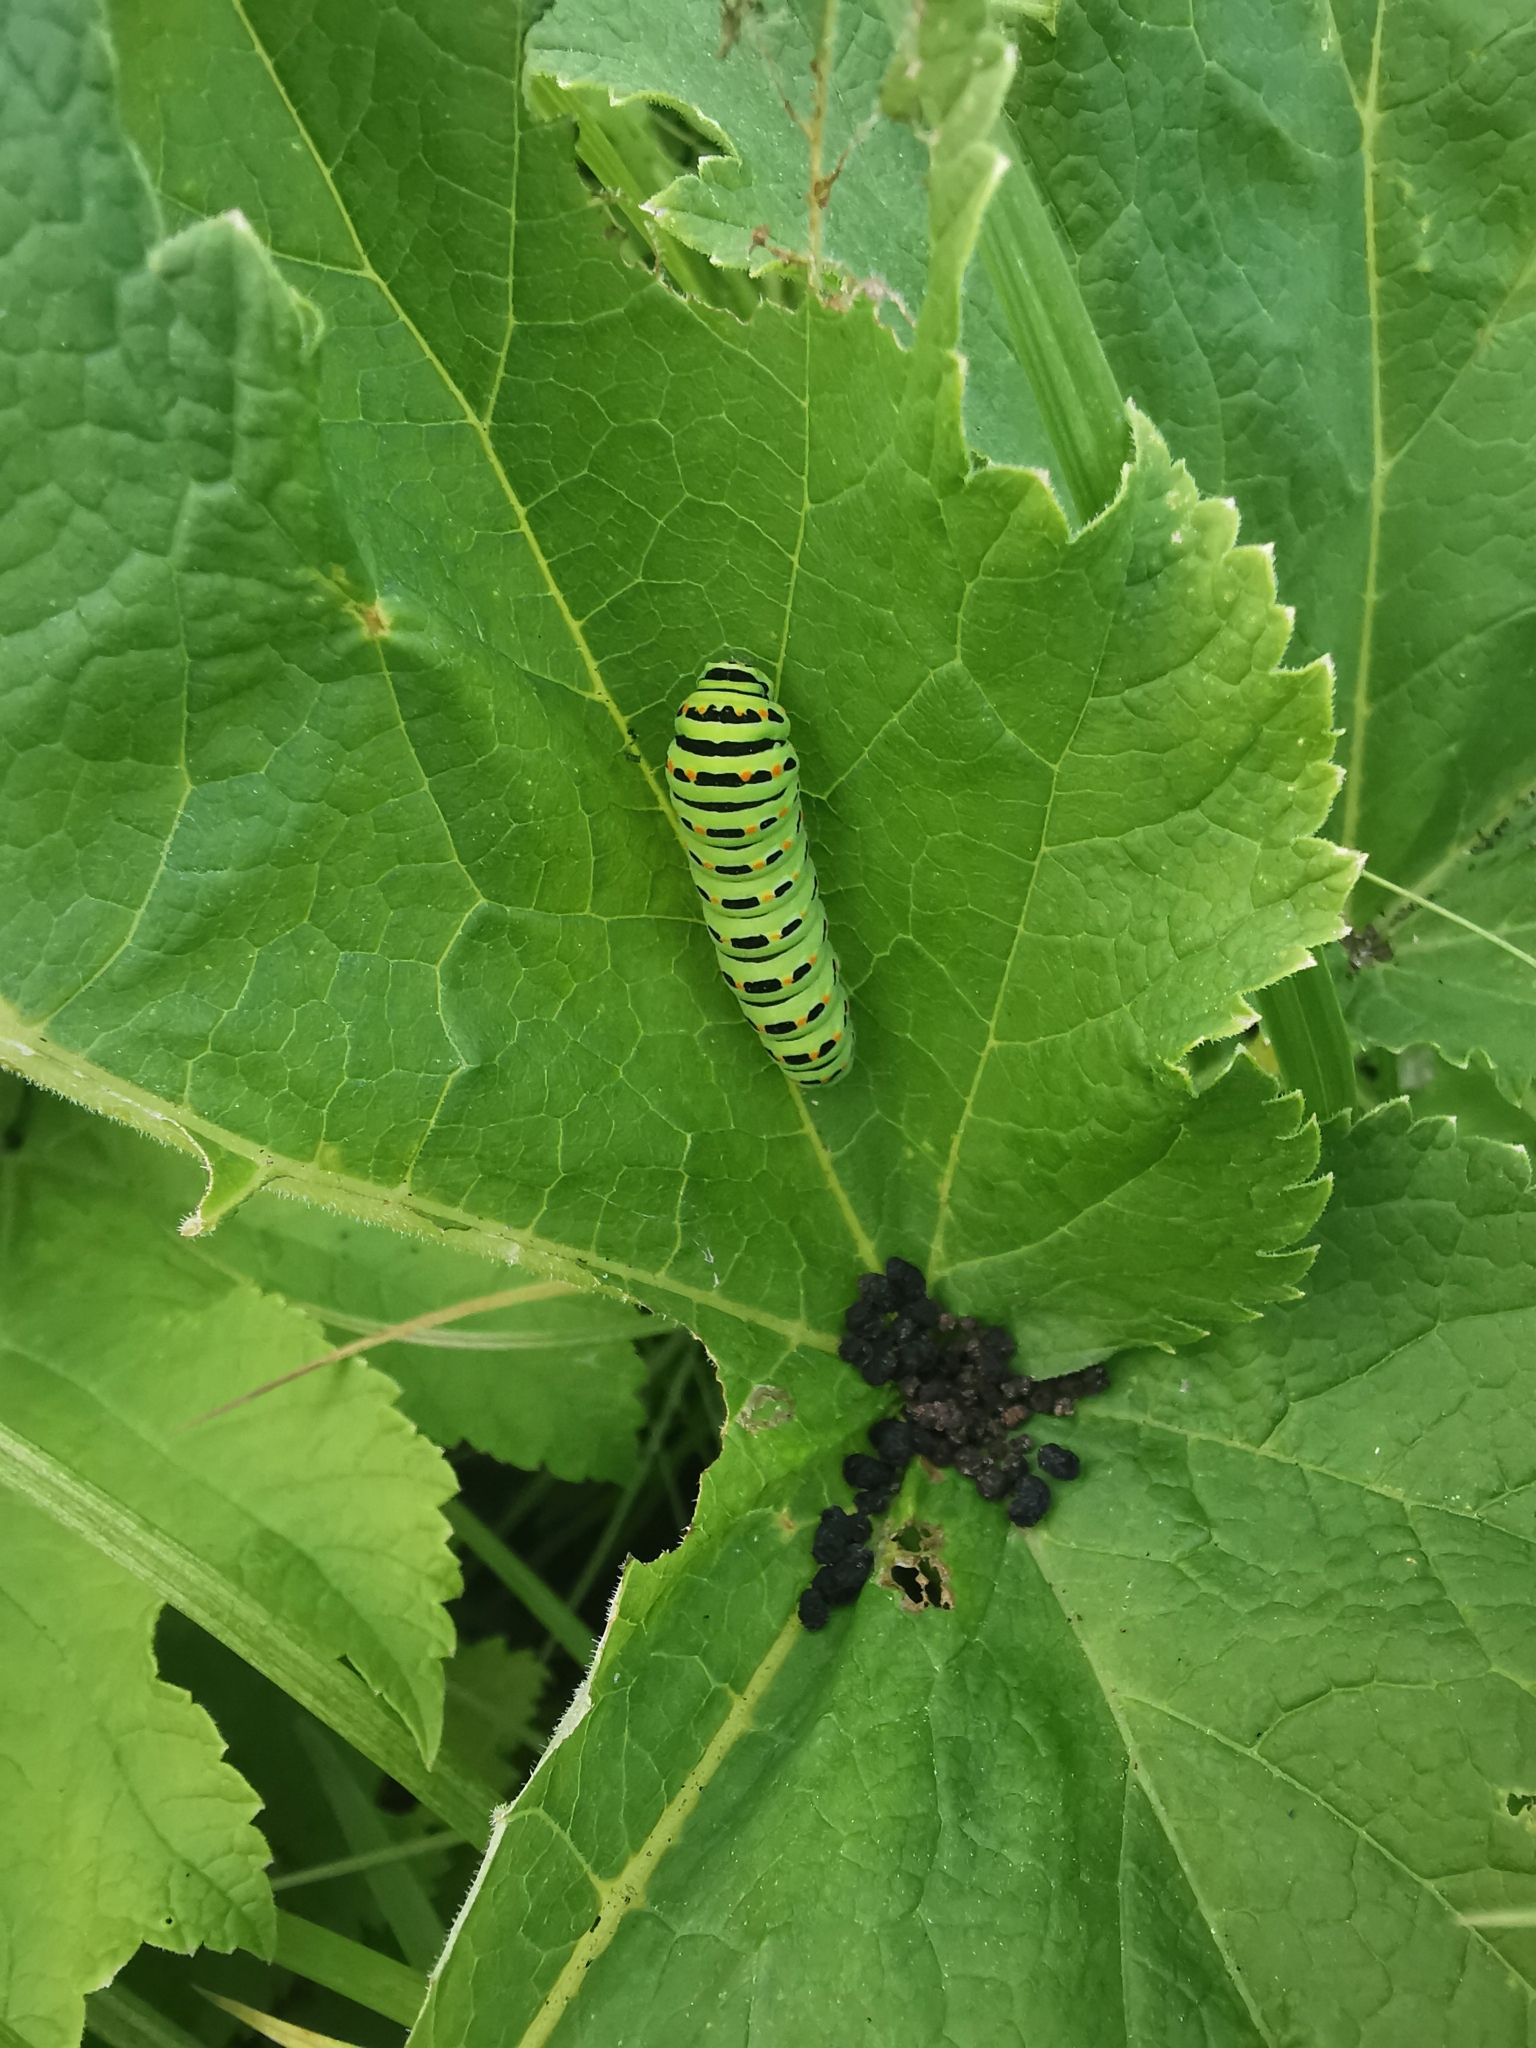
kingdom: Animalia
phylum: Arthropoda
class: Insecta
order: Lepidoptera
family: Papilionidae
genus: Papilio
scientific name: Papilio machaon
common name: Swallowtail
